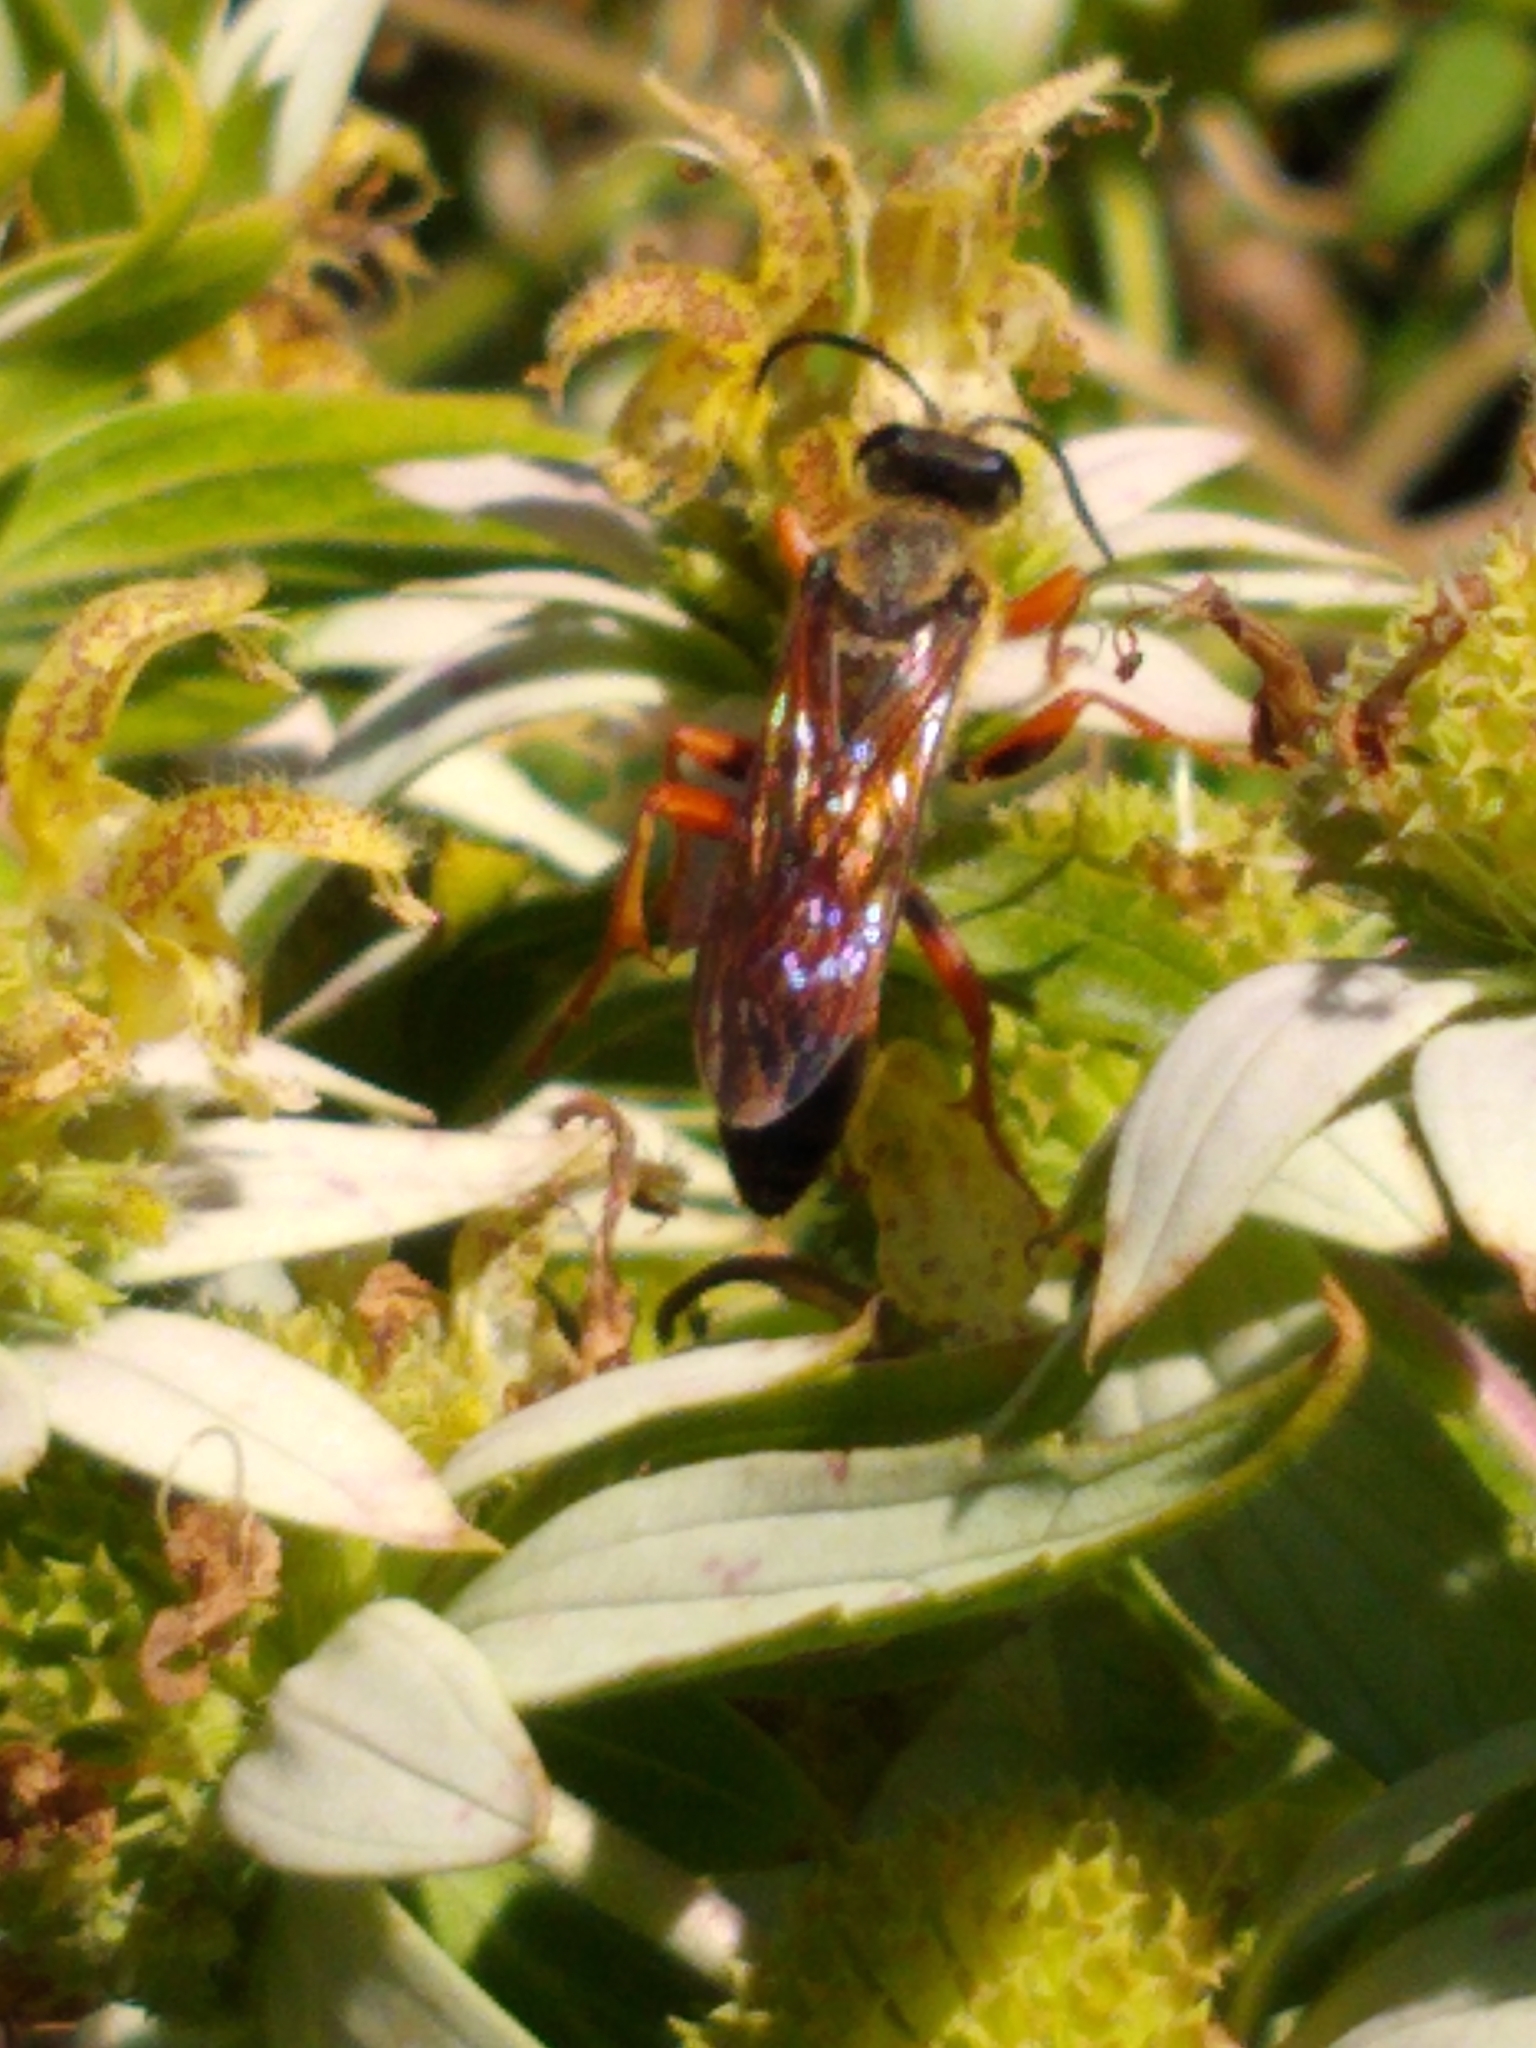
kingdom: Animalia
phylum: Arthropoda
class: Insecta
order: Hymenoptera
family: Sphecidae
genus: Sphex
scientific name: Sphex ichneumoneus
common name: Great golden digger wasp
